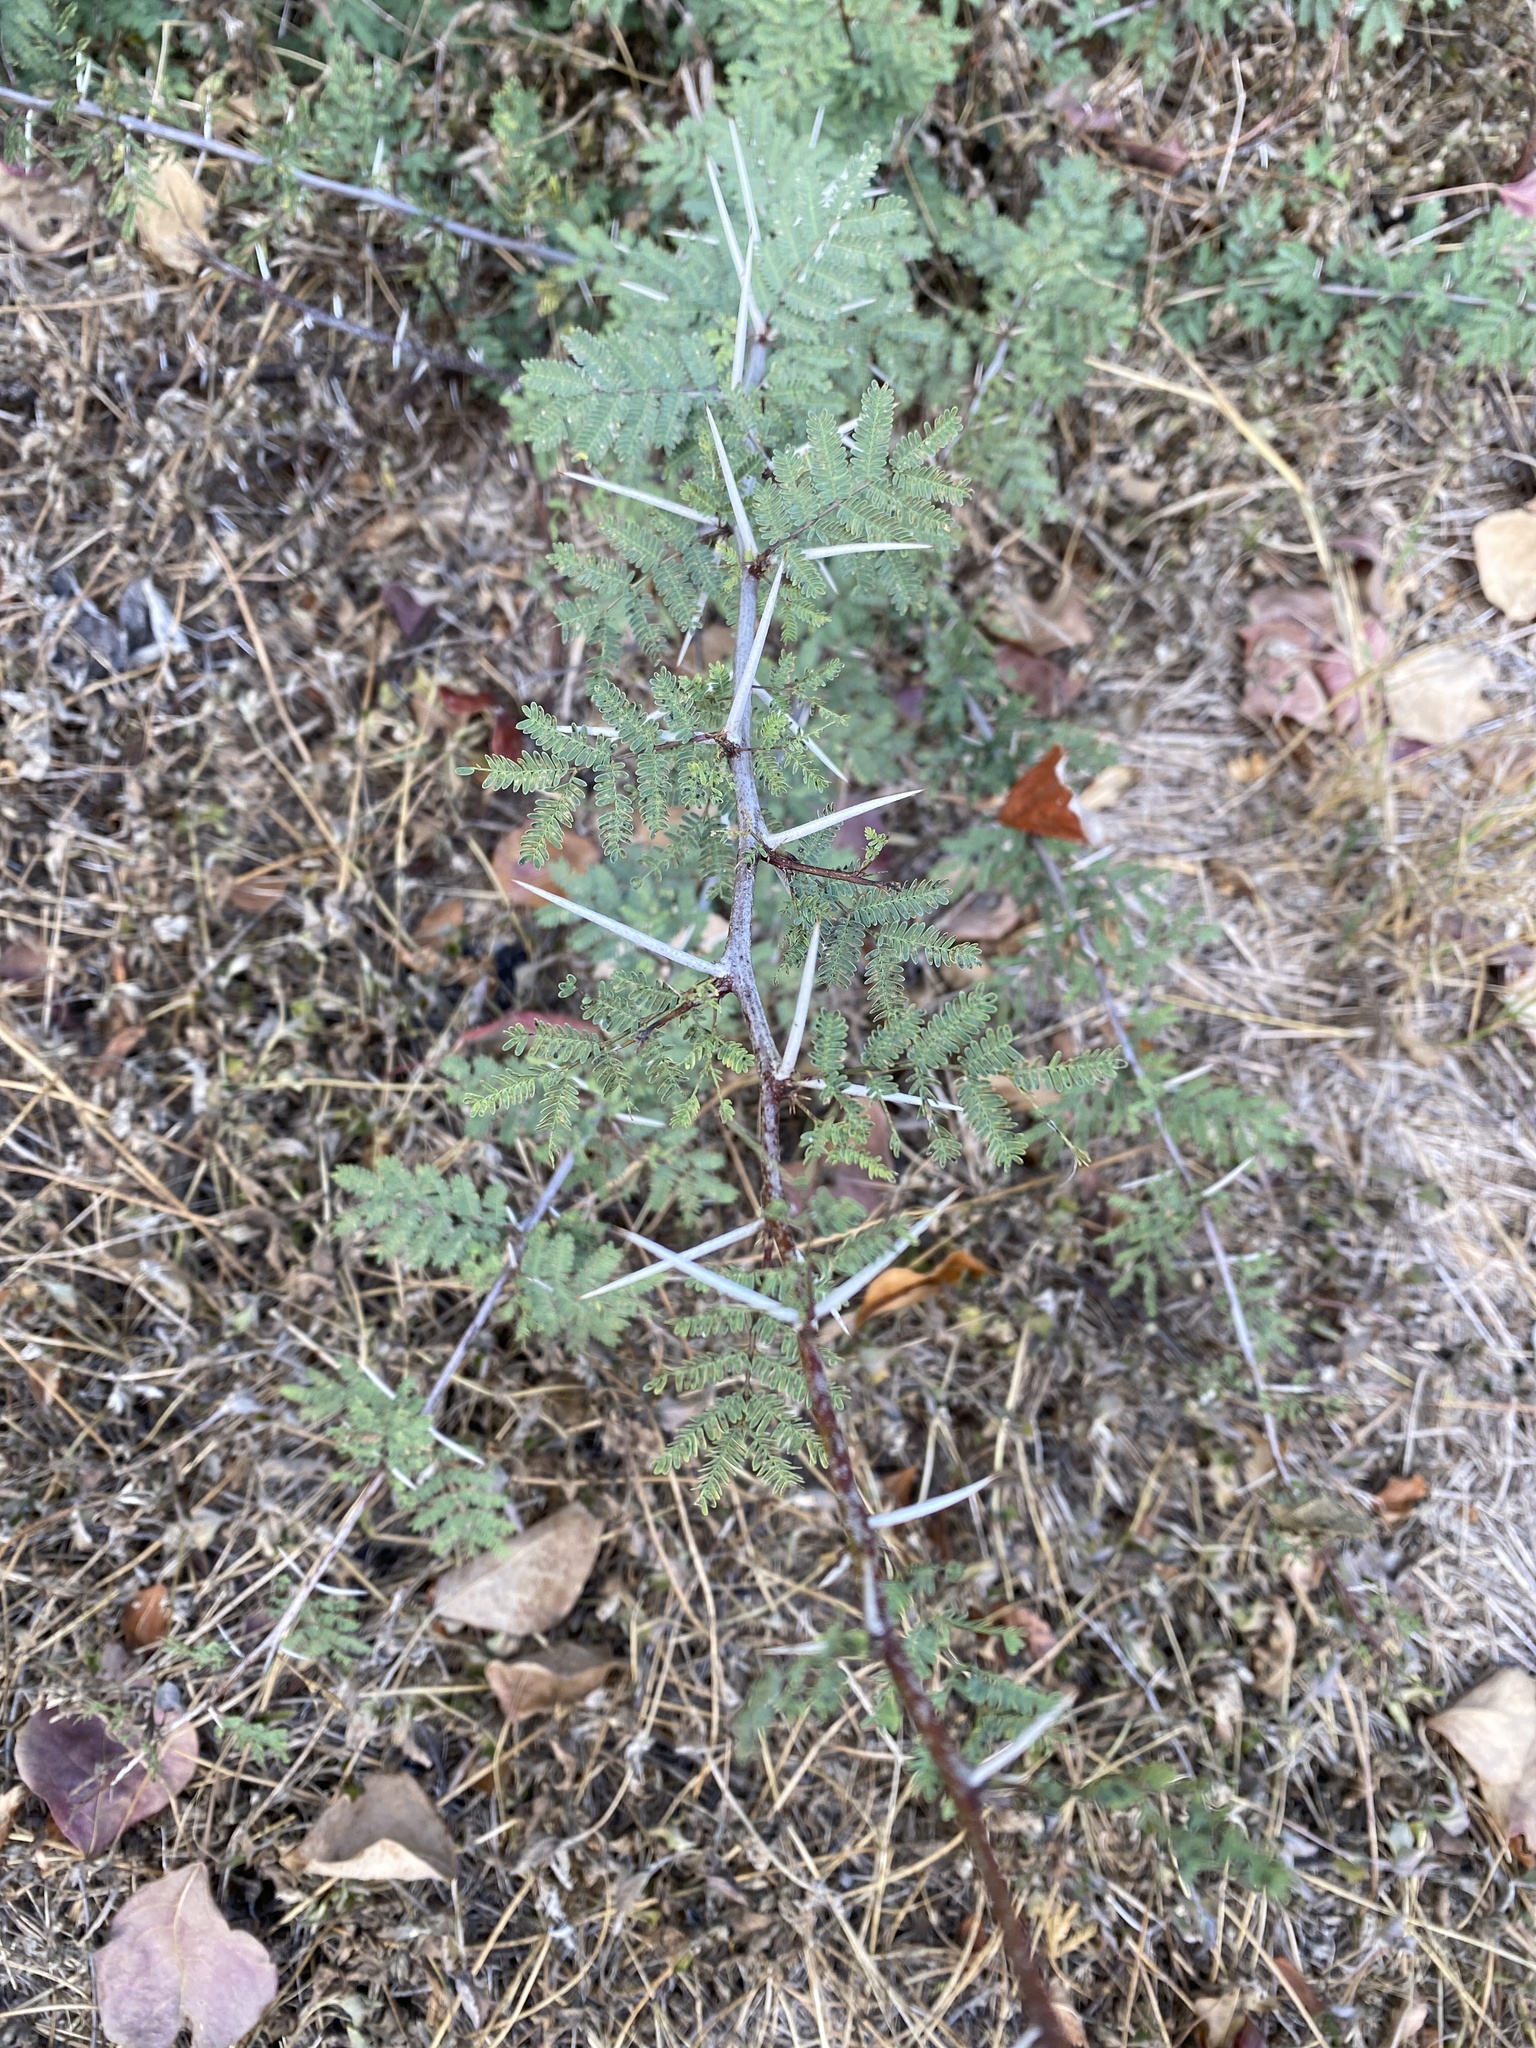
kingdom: Plantae
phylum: Tracheophyta
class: Magnoliopsida
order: Fabales
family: Fabaceae
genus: Vachellia
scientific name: Vachellia farnesiana
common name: Sweet acacia
